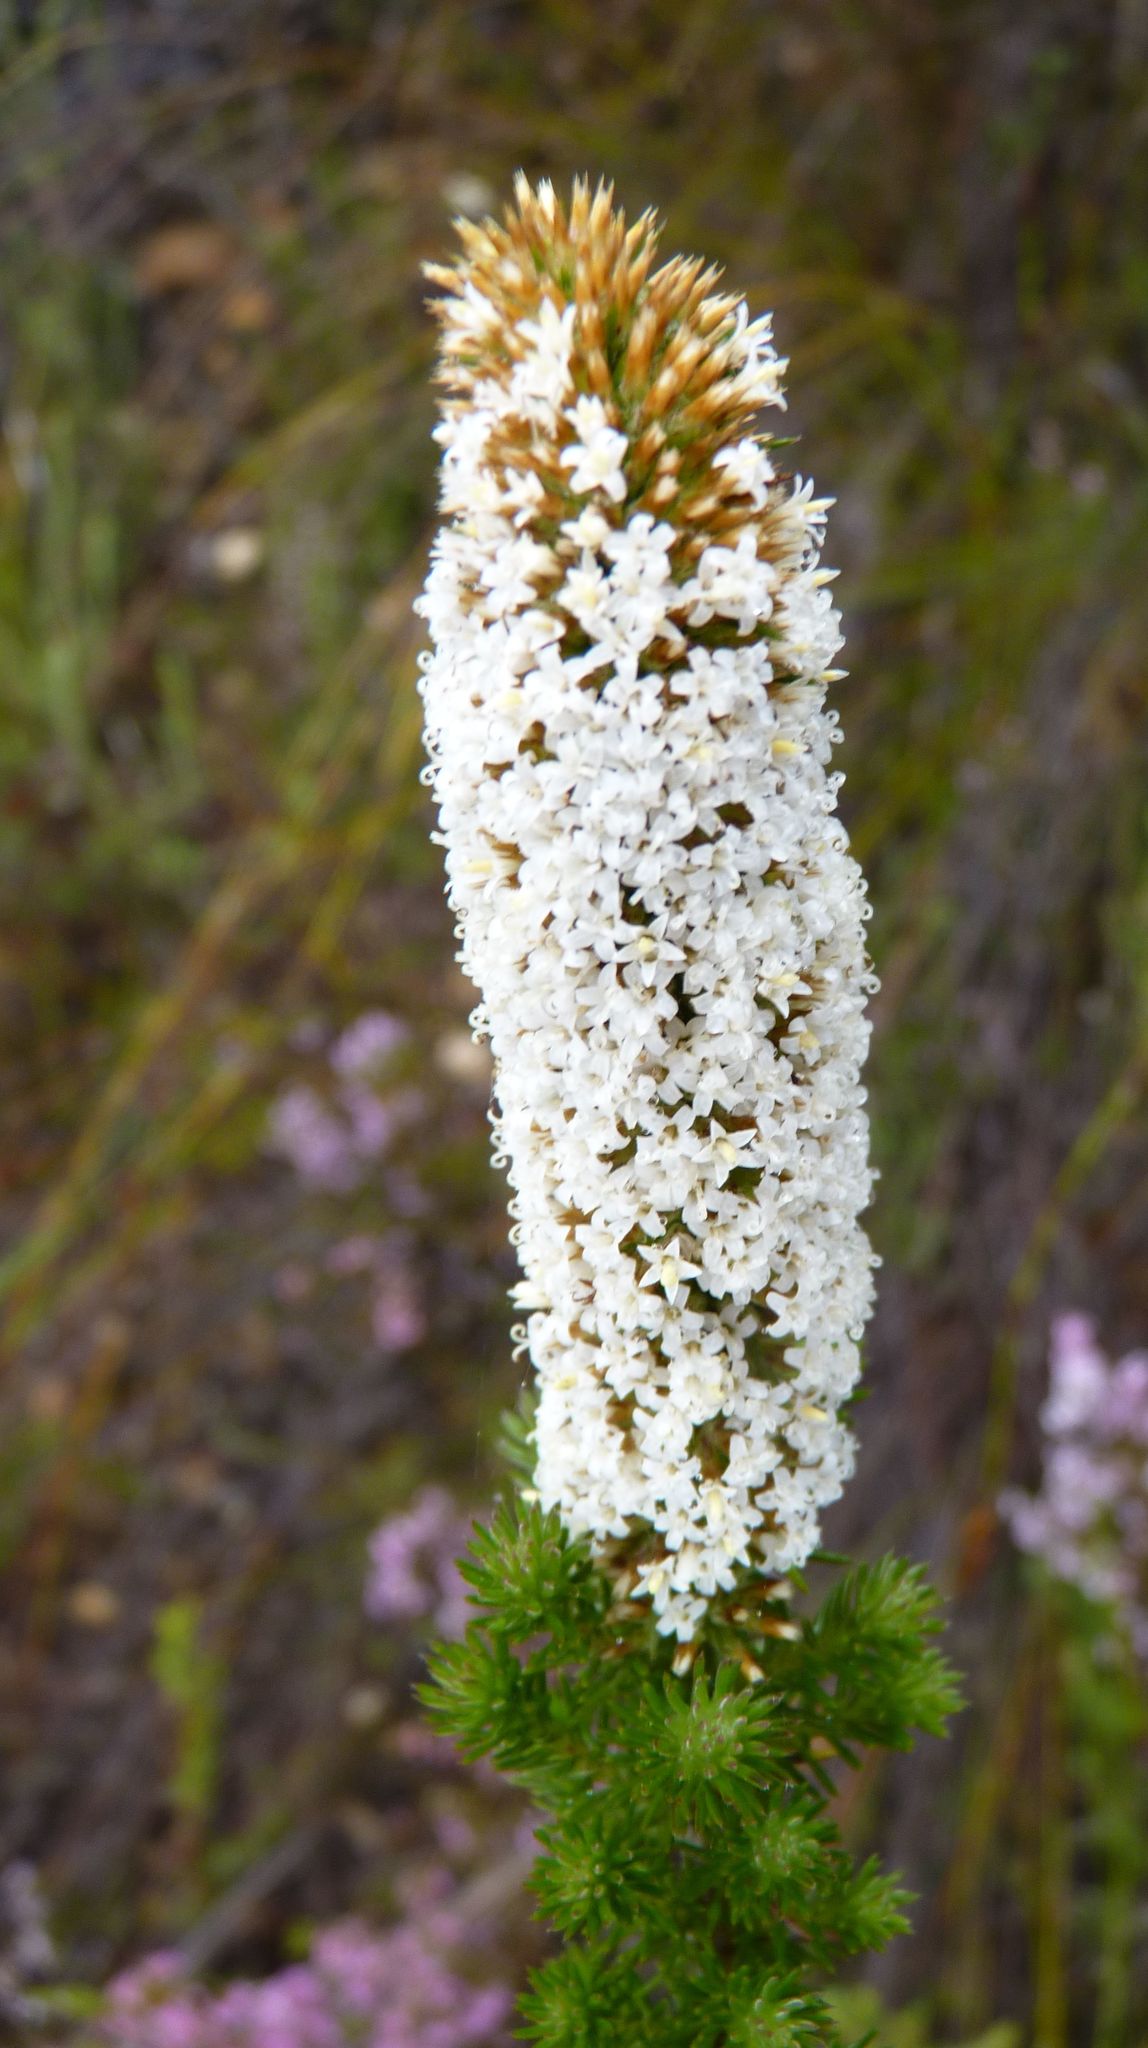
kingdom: Plantae
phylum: Tracheophyta
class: Magnoliopsida
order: Asterales
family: Asteraceae
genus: Stoebe
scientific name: Stoebe alopecuroides
